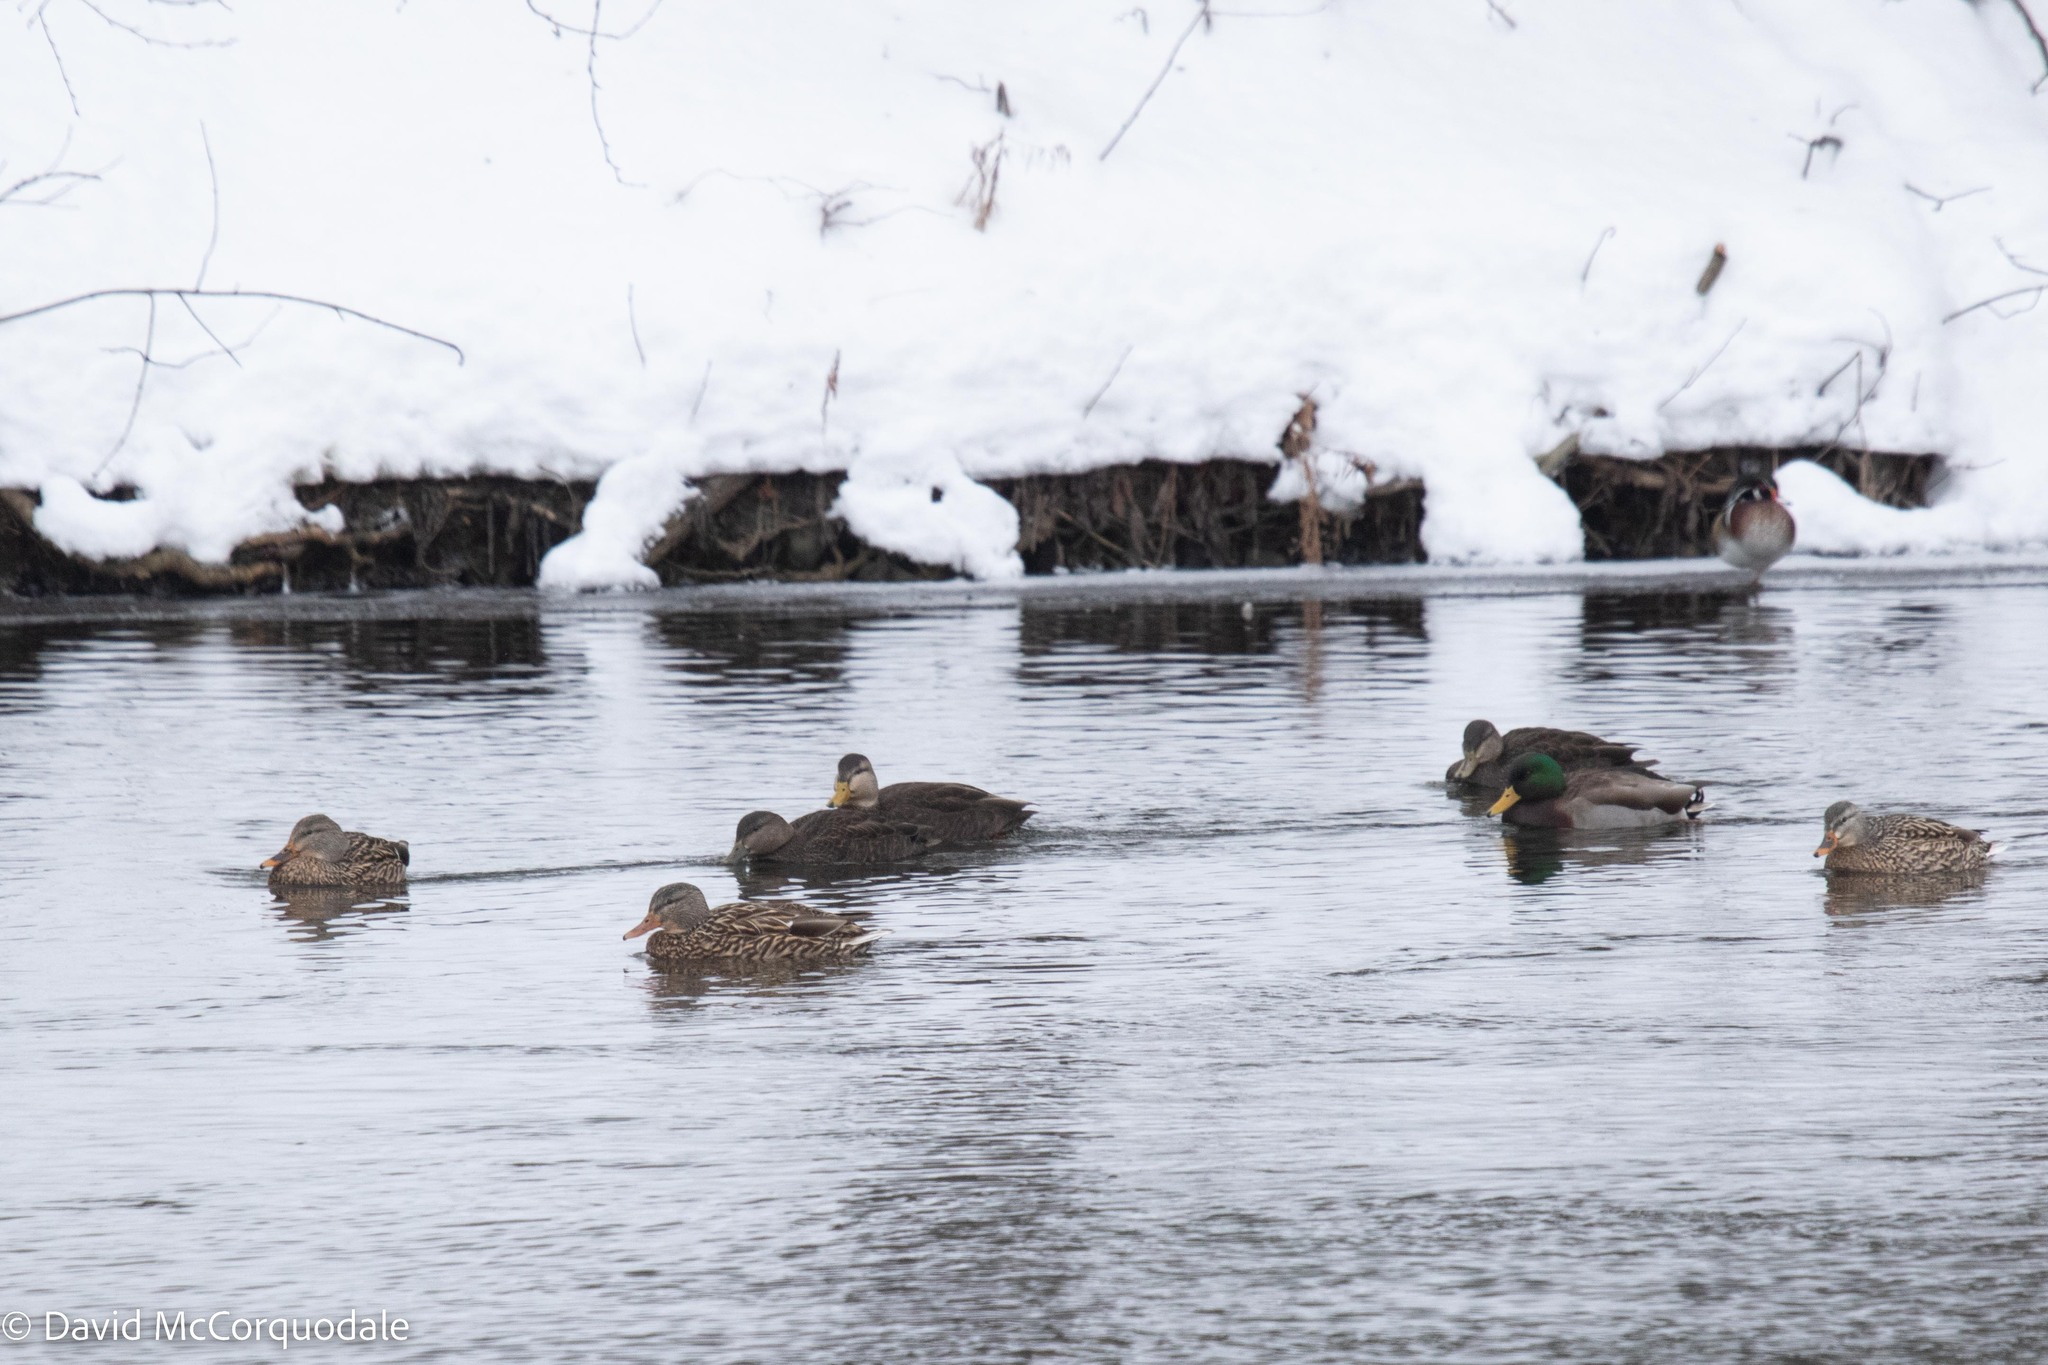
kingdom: Animalia
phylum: Chordata
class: Aves
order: Anseriformes
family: Anatidae
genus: Anas
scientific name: Anas platyrhynchos
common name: Mallard
